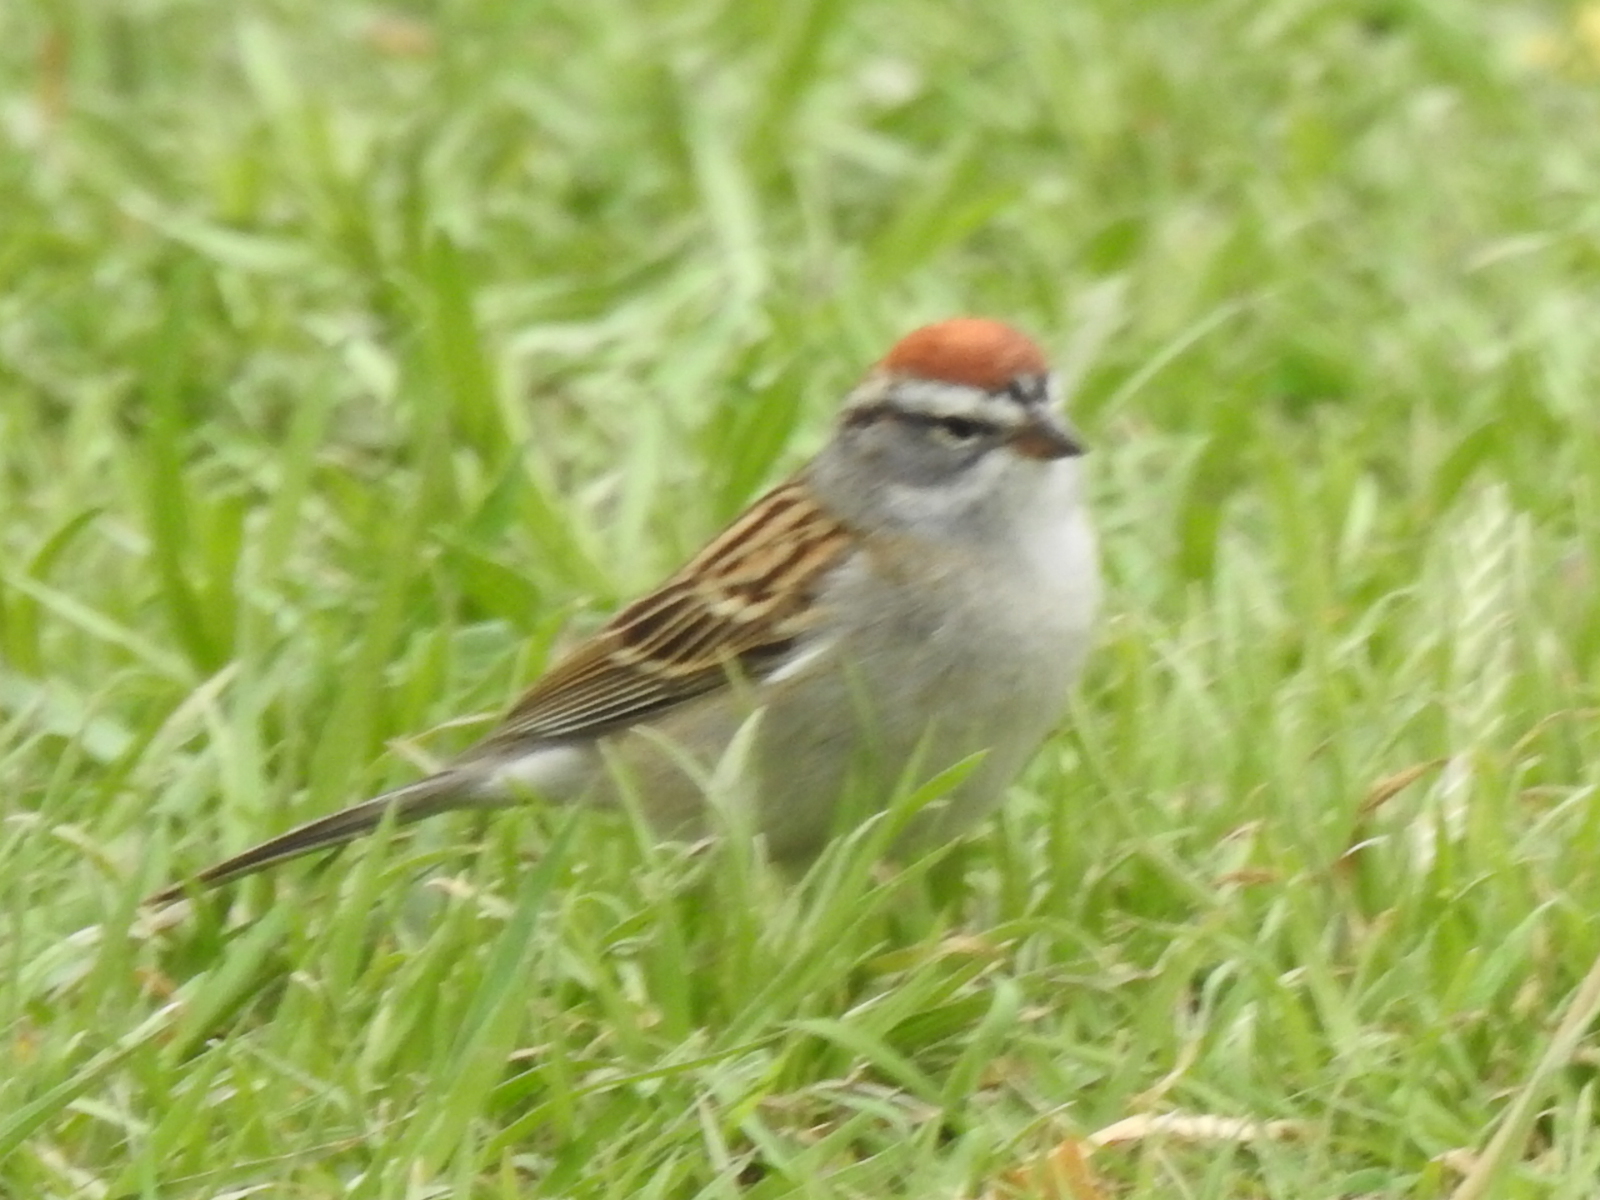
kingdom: Animalia
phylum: Chordata
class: Aves
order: Passeriformes
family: Passerellidae
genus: Spizella
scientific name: Spizella passerina
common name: Chipping sparrow
